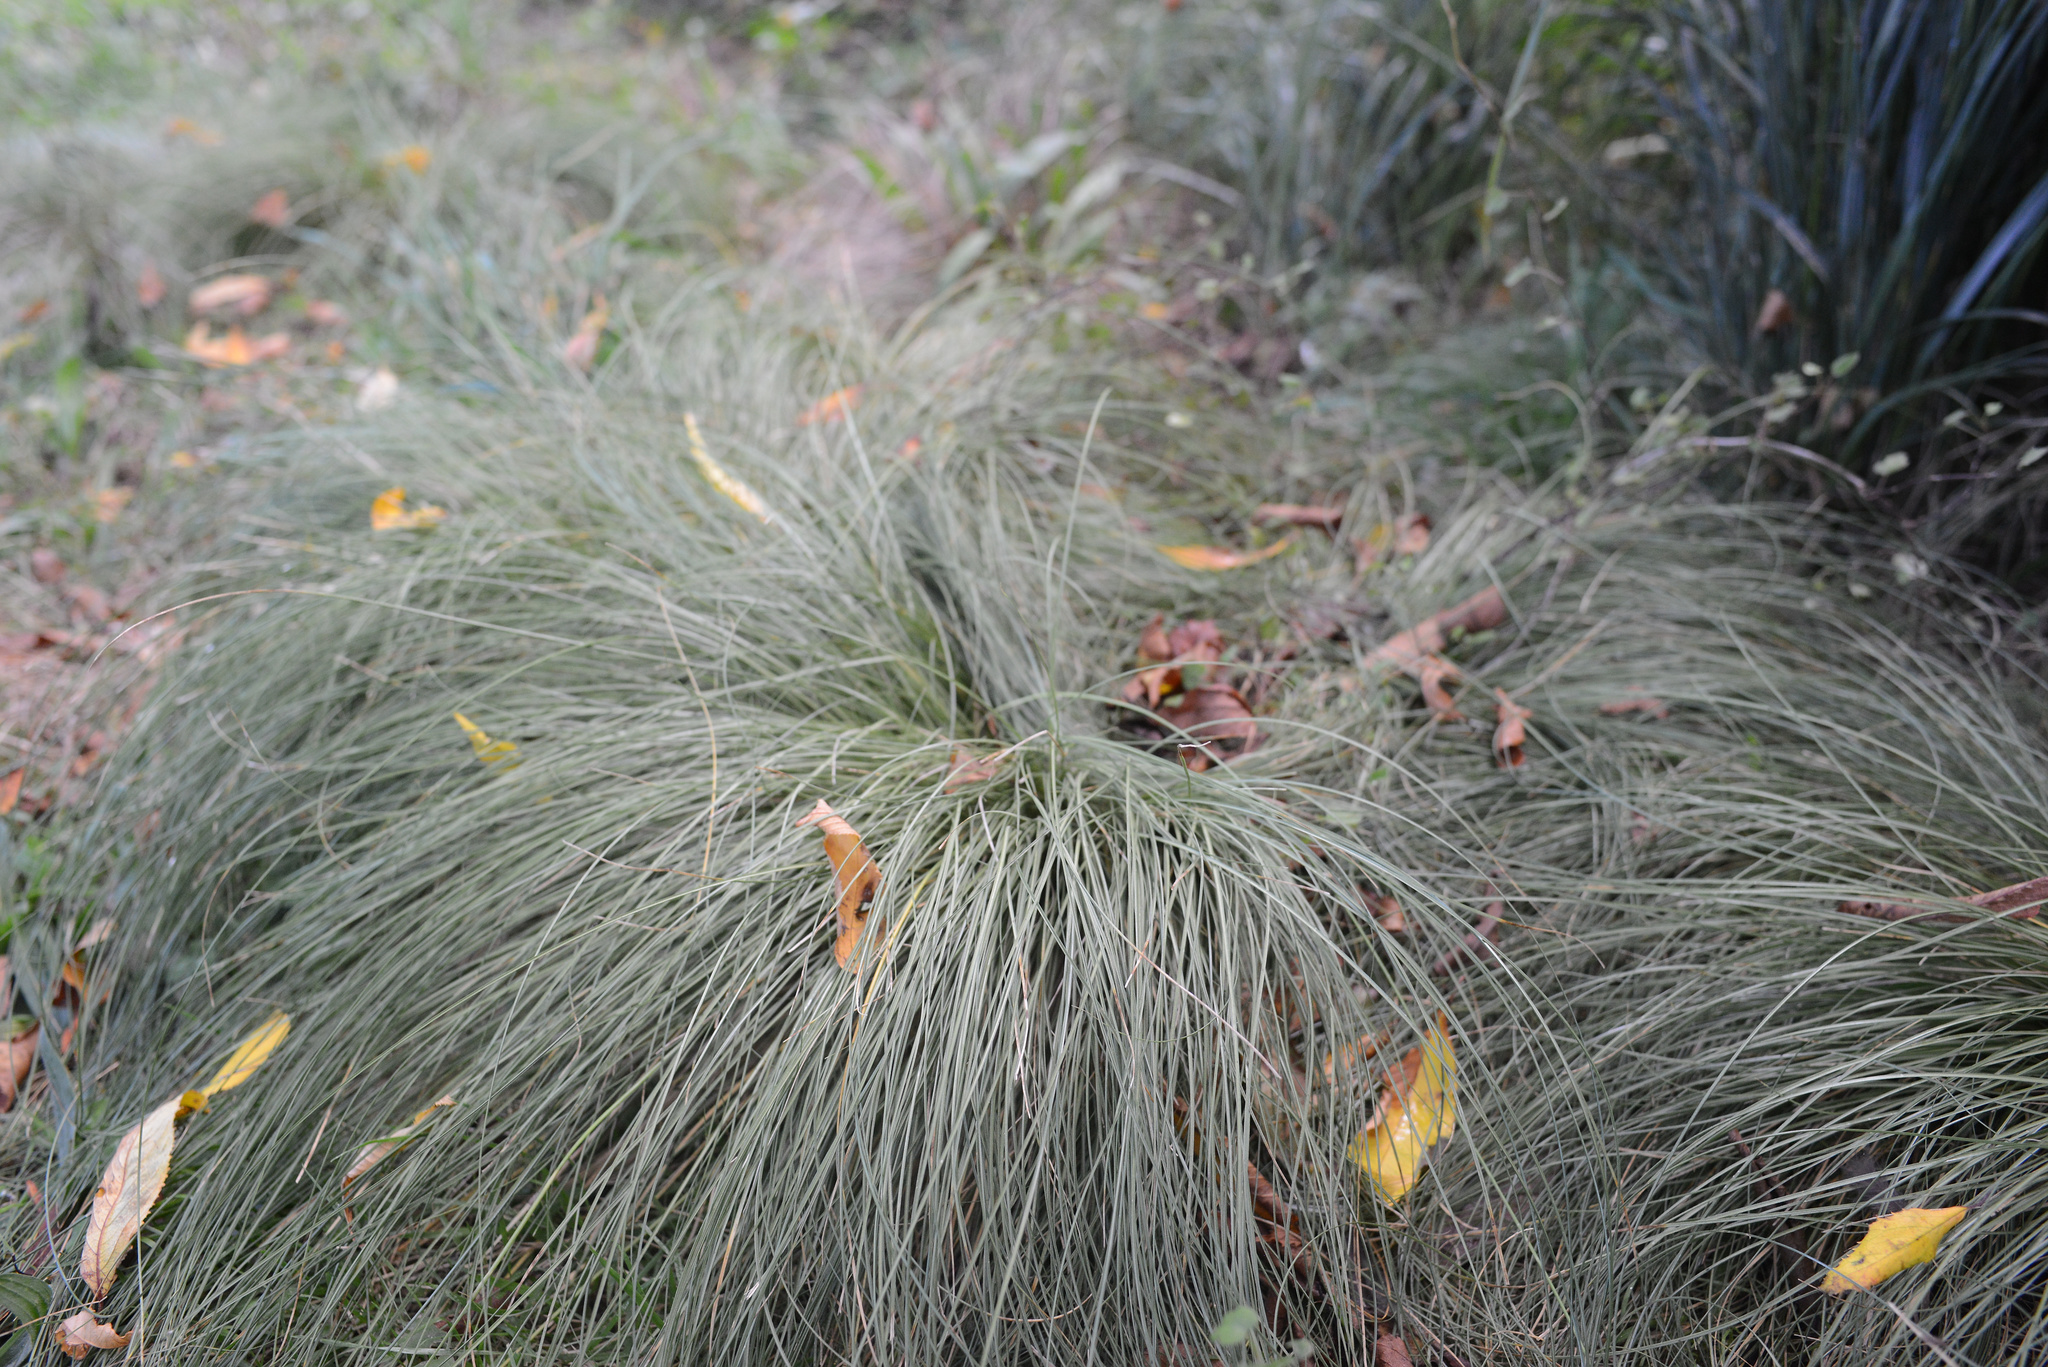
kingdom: Plantae
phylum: Tracheophyta
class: Liliopsida
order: Poales
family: Cyperaceae
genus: Carex
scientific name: Carex comans
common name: Longwood tussock
